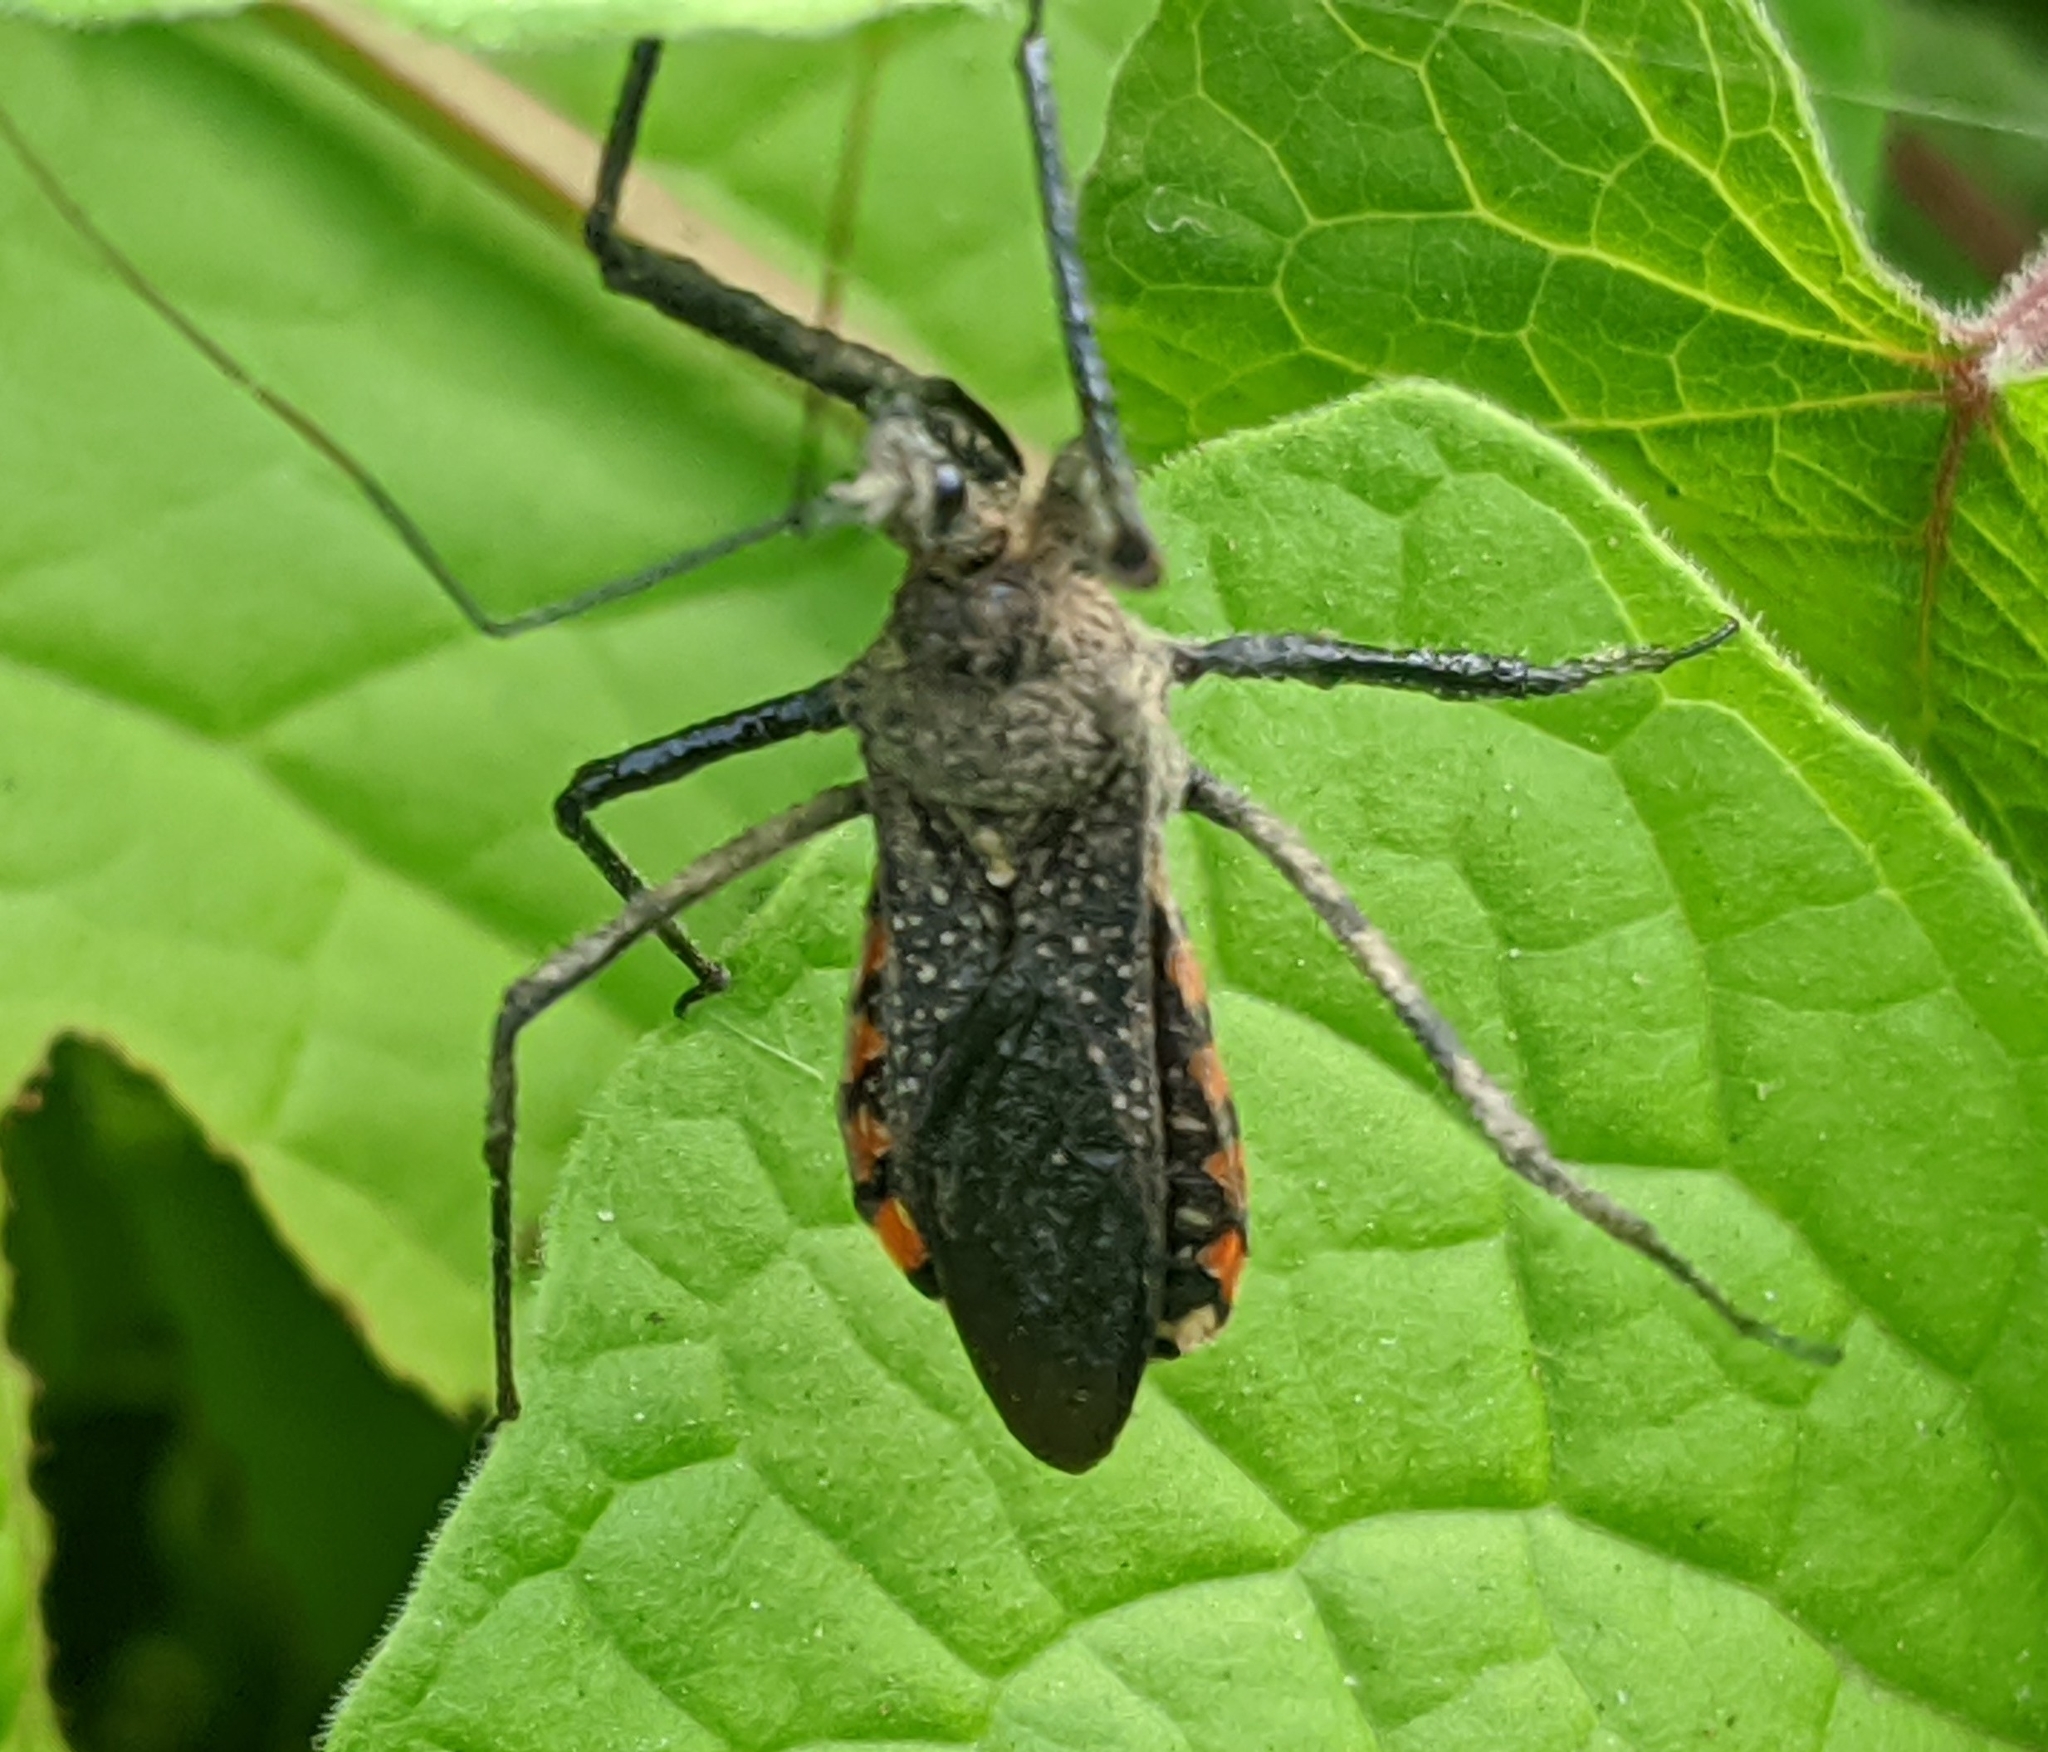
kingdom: Animalia
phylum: Arthropoda
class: Insecta
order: Hemiptera
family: Reduviidae
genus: Rhynocoris
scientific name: Rhynocoris albopilosus
